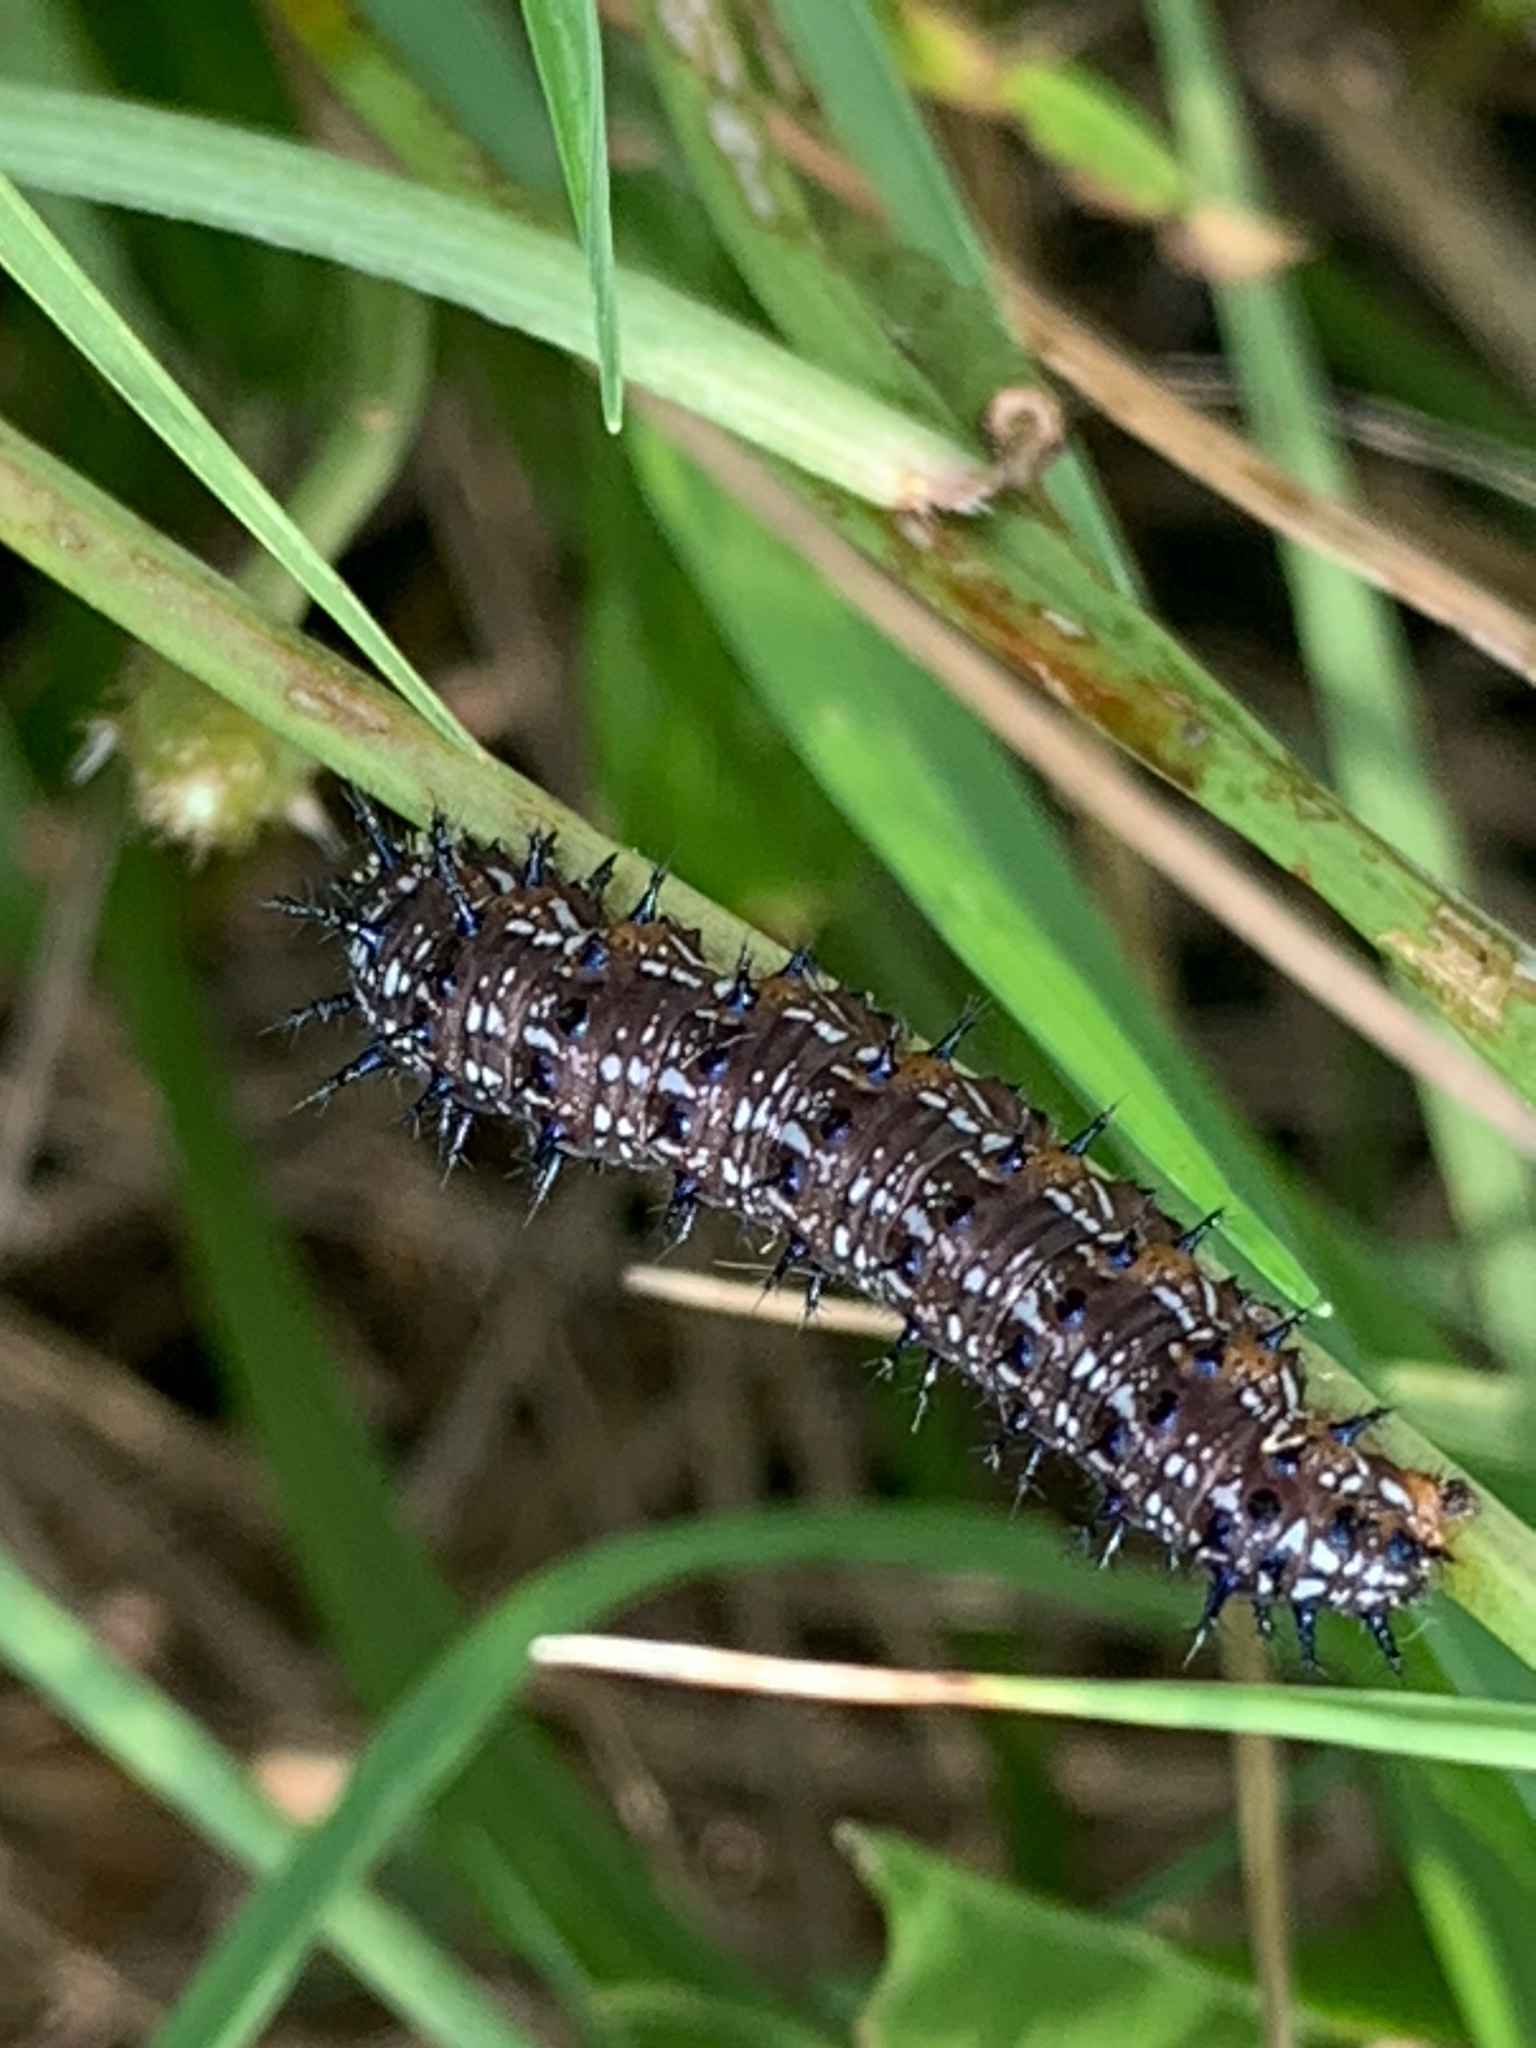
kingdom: Animalia
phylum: Arthropoda
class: Insecta
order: Lepidoptera
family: Nymphalidae
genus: Junonia
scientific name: Junonia coenia
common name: Common buckeye
